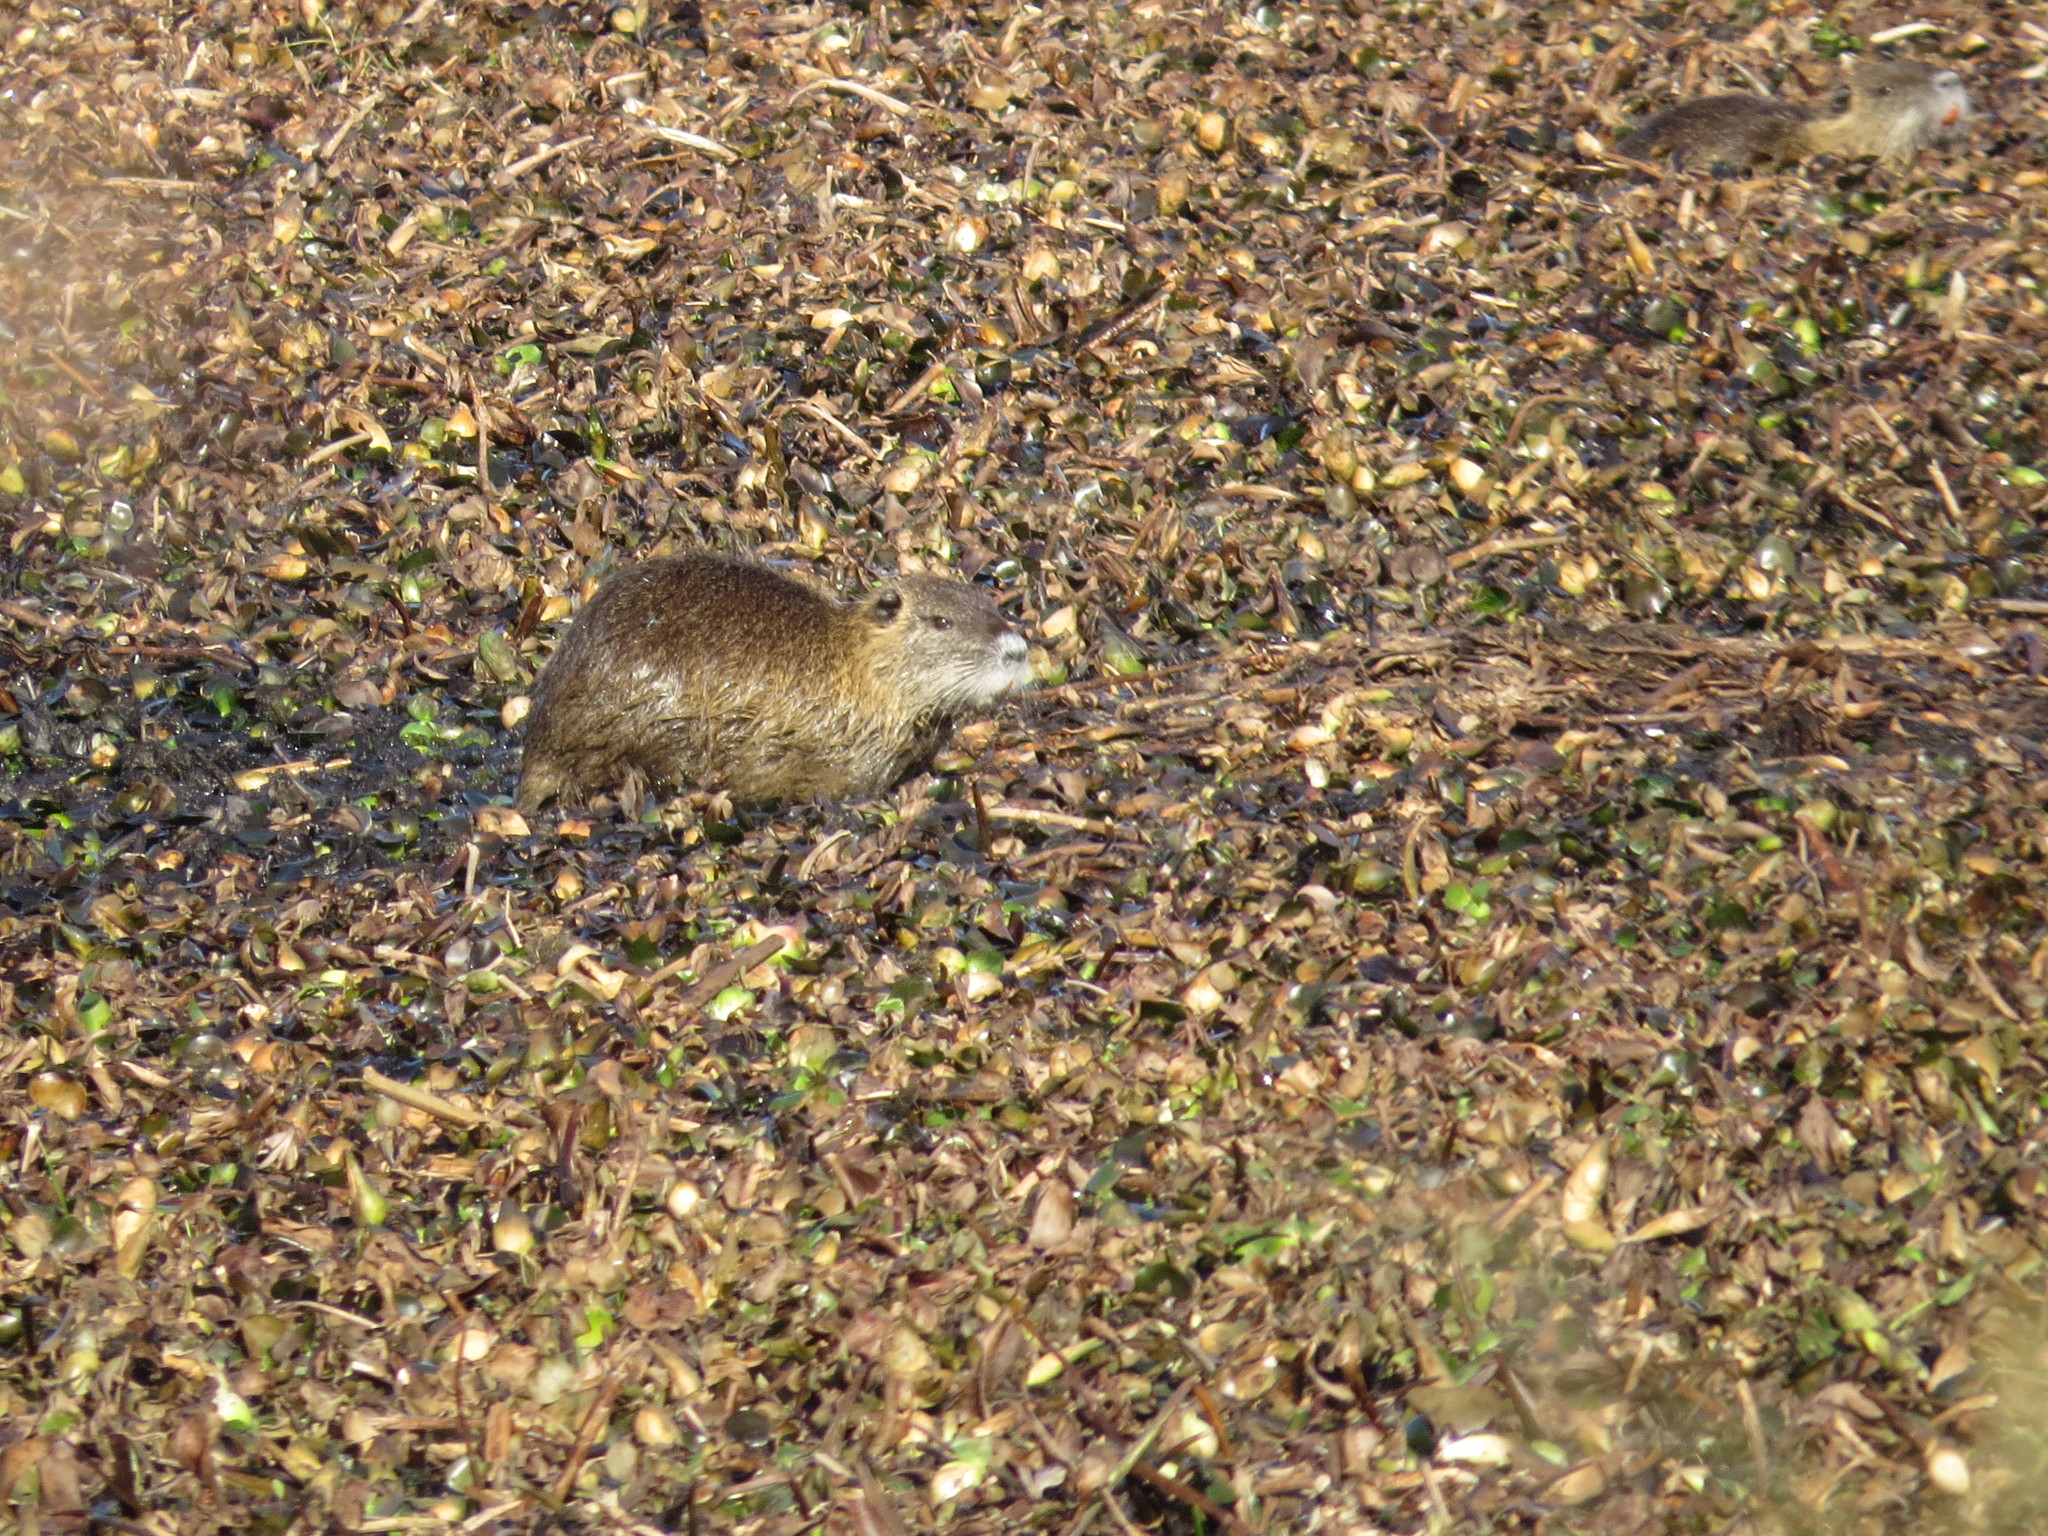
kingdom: Animalia
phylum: Chordata
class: Mammalia
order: Rodentia
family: Myocastoridae
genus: Myocastor
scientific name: Myocastor coypus
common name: Coypu
